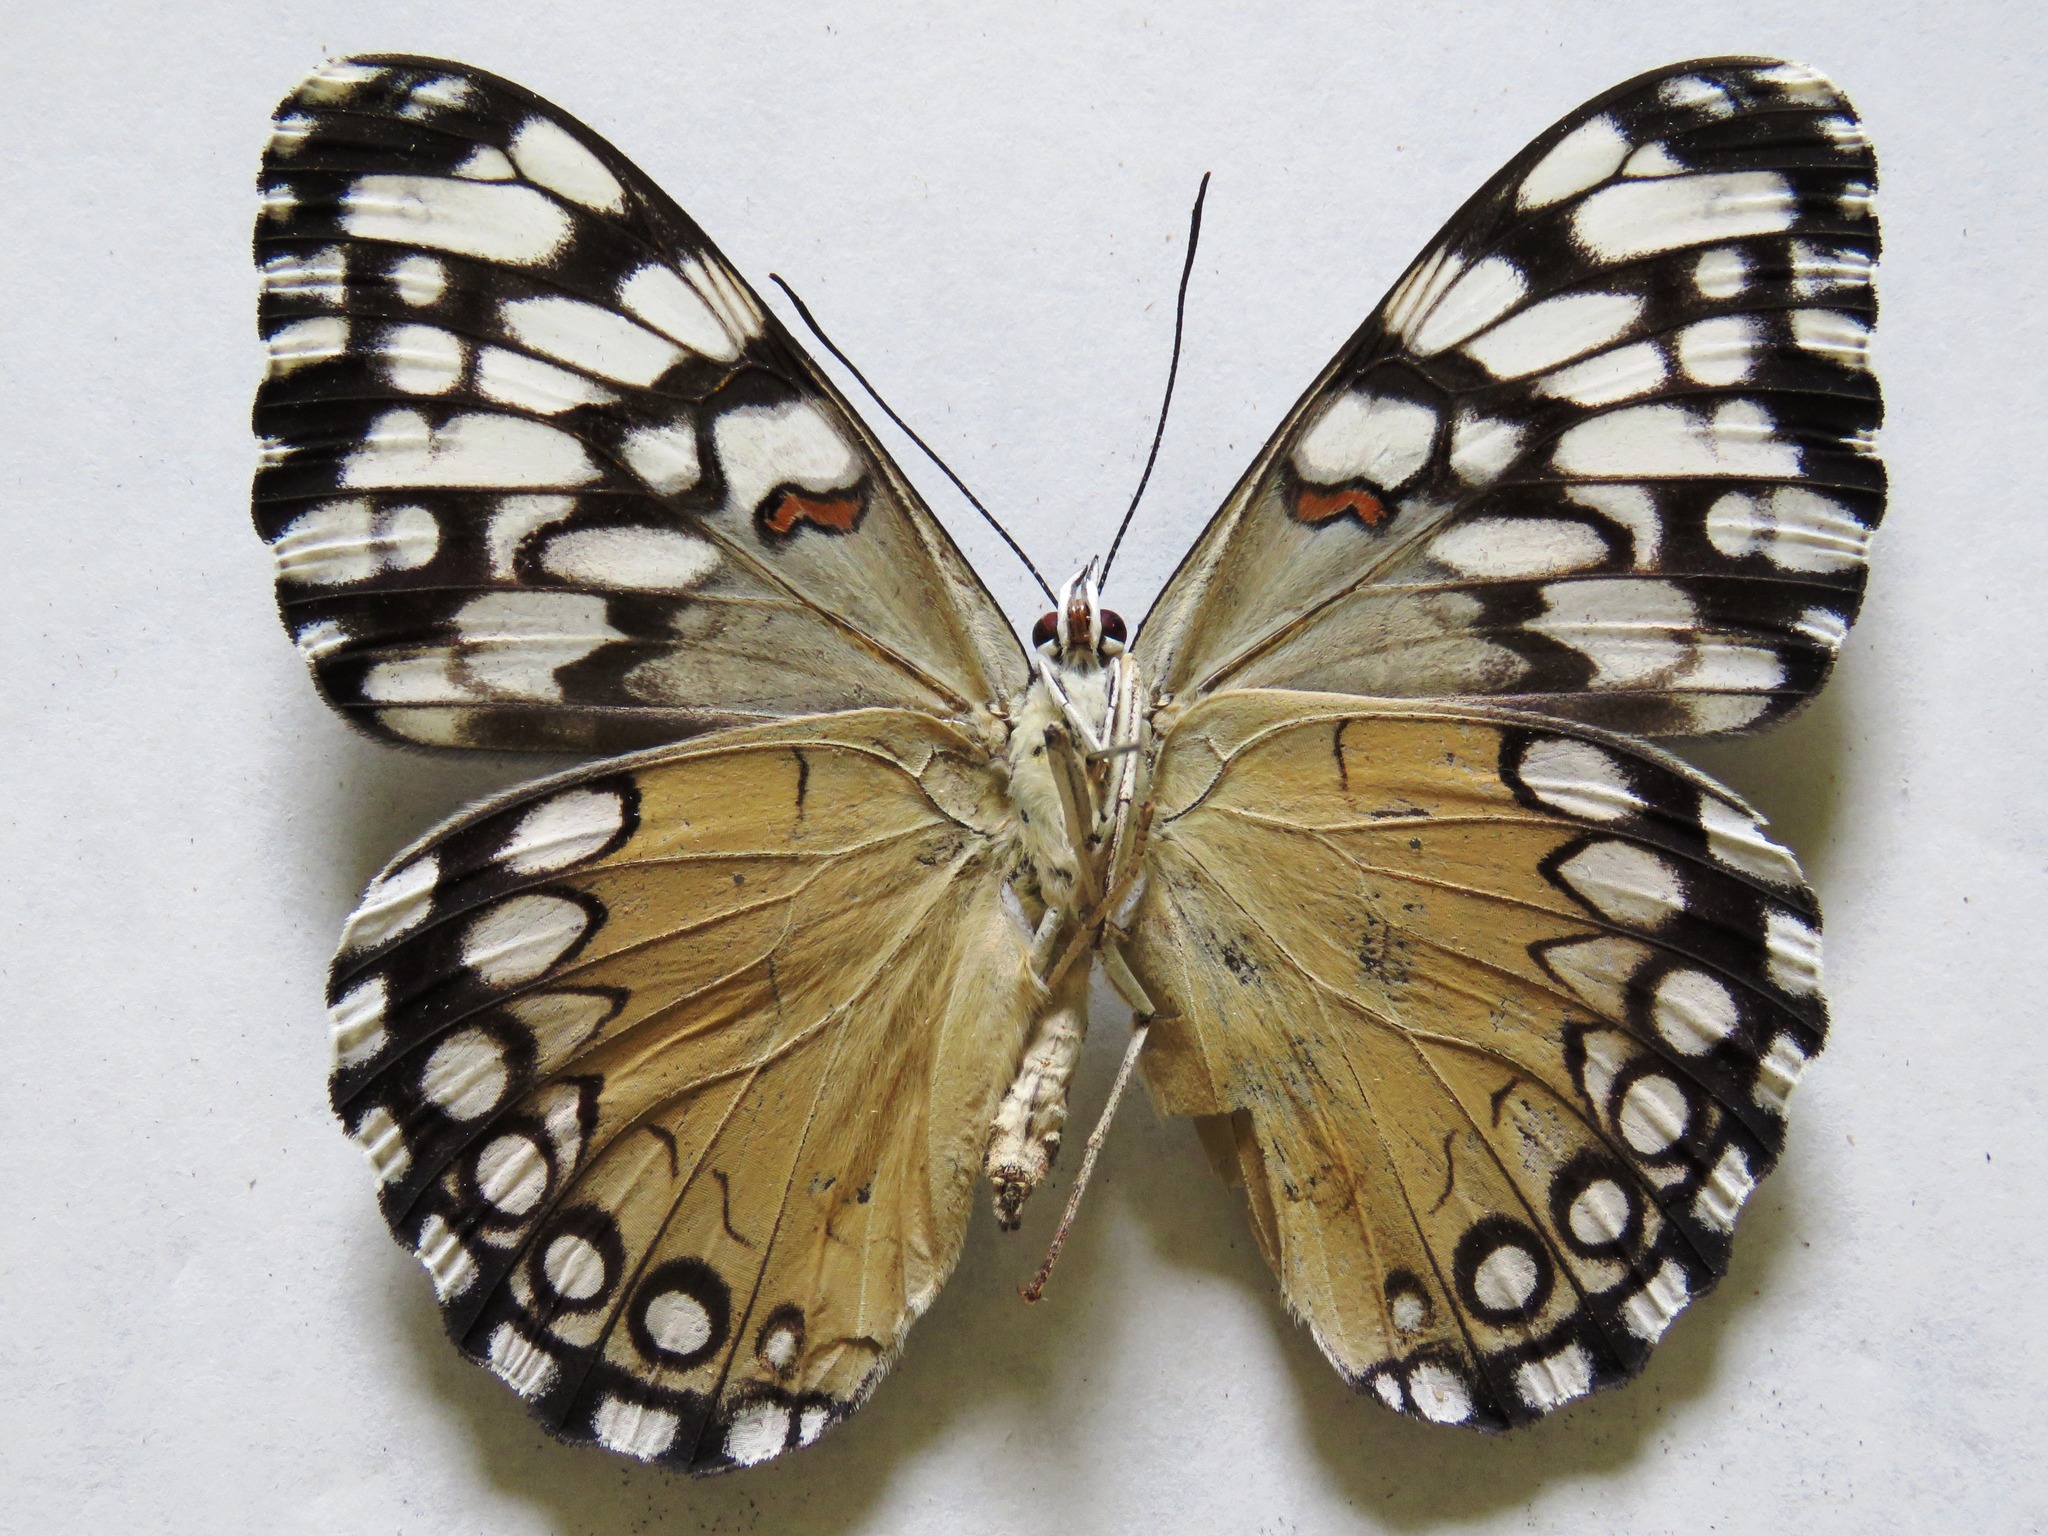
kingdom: Animalia
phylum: Arthropoda
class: Insecta
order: Lepidoptera
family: Nymphalidae
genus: Hamadryas
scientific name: Hamadryas guatemalena
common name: Guatemalan cracker
